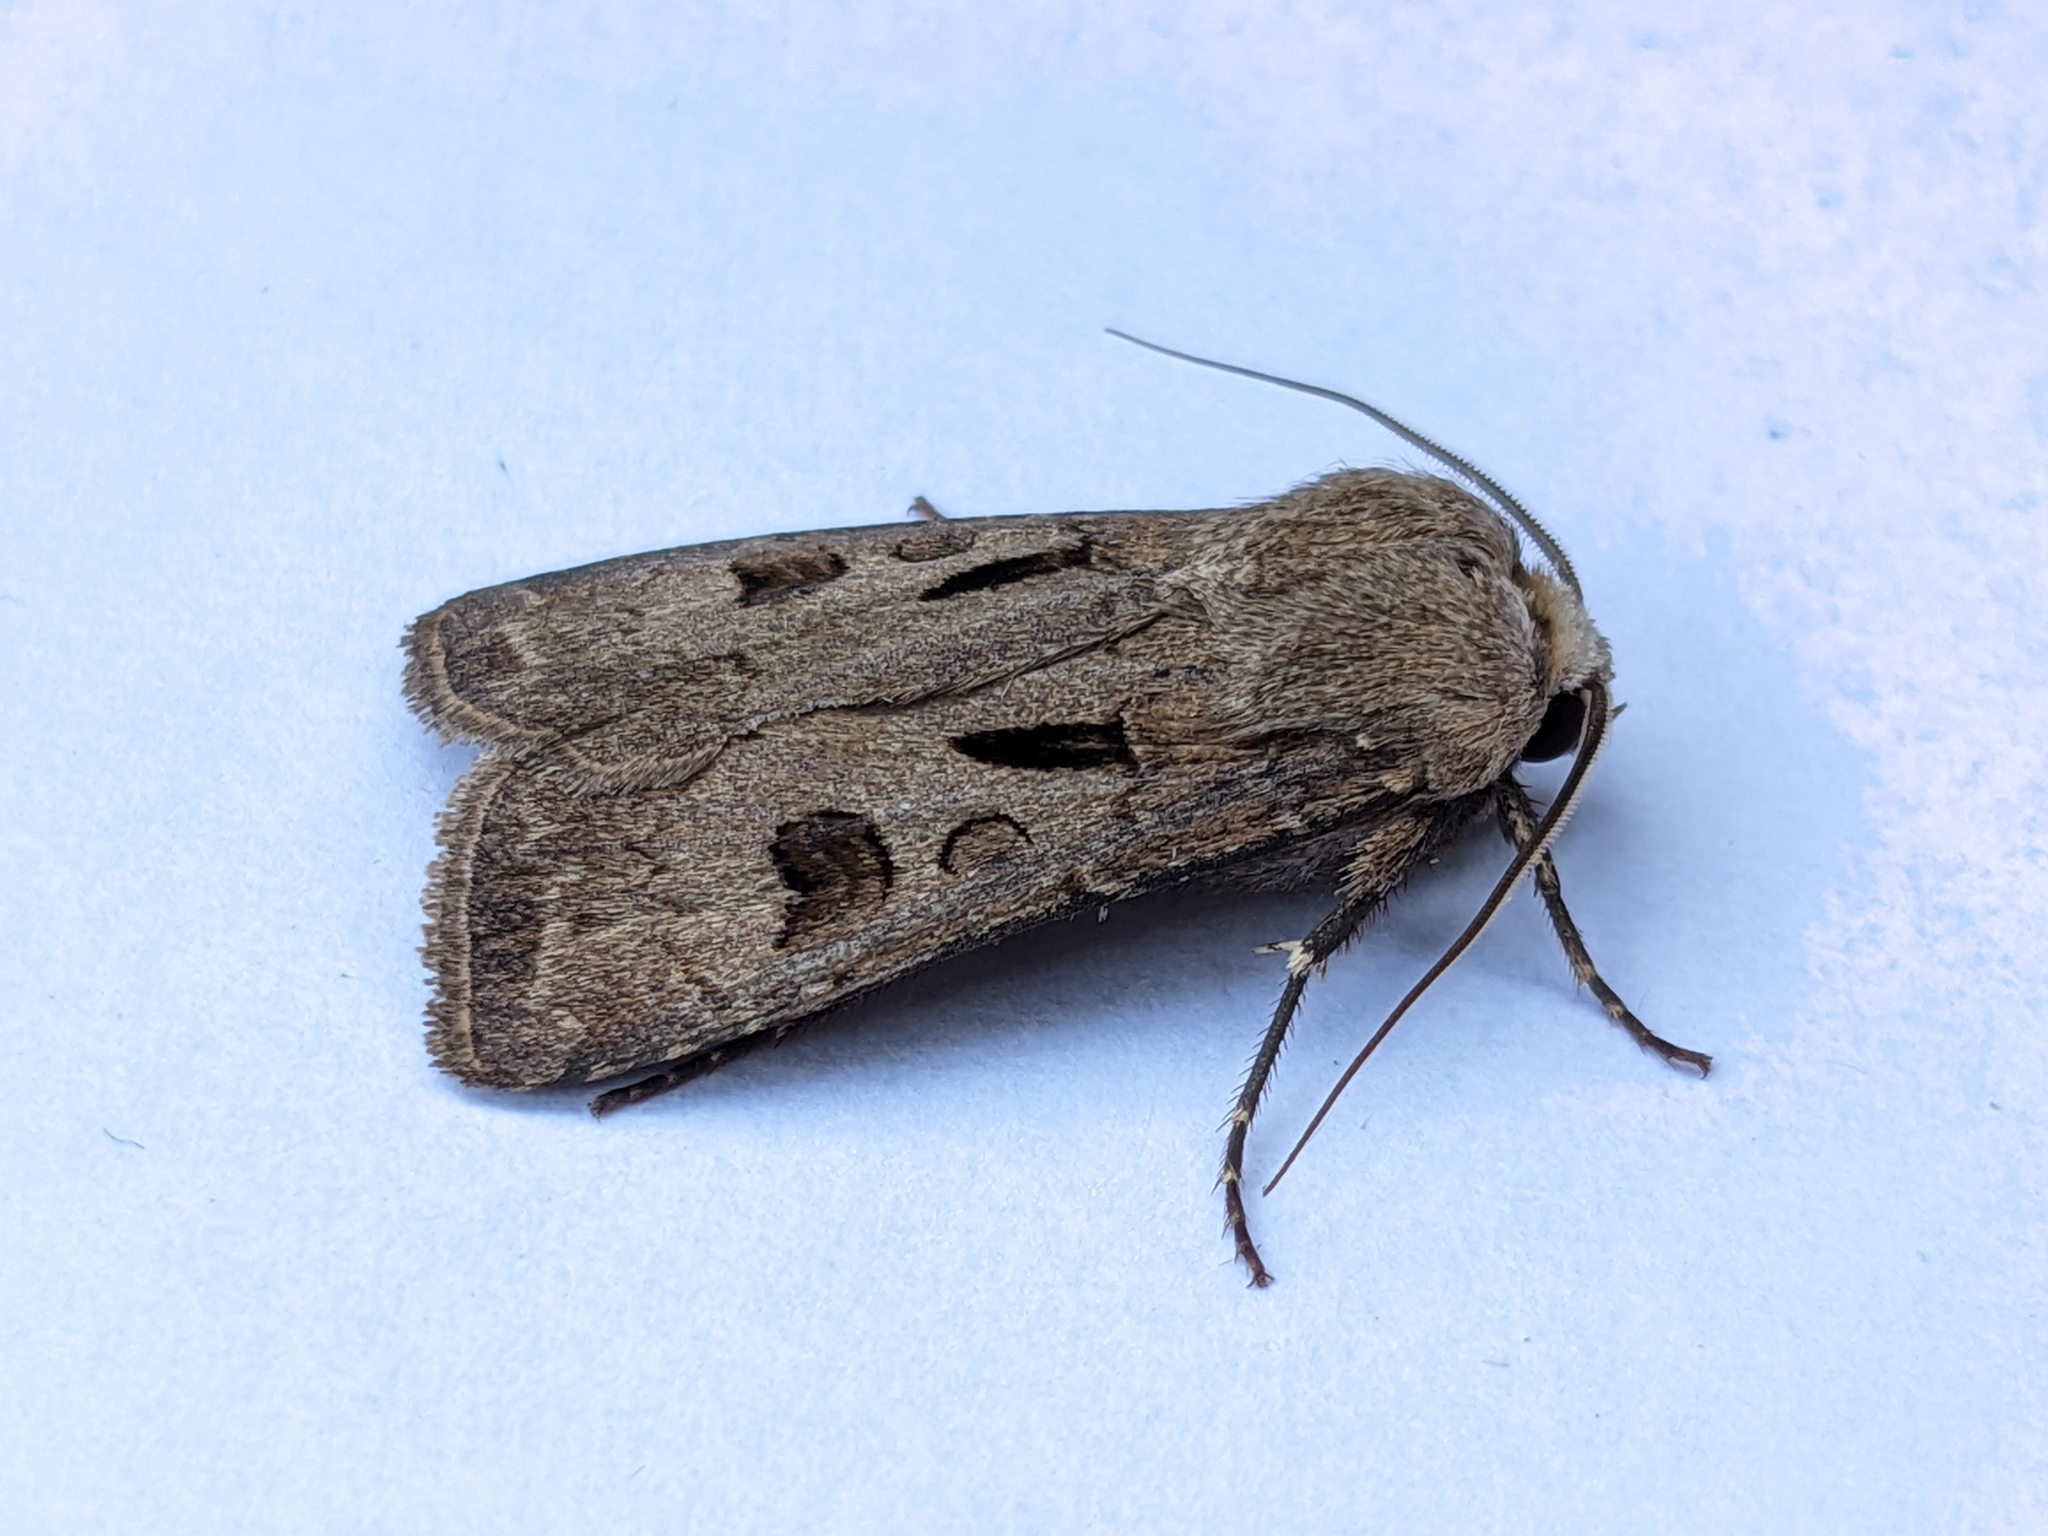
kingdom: Animalia
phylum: Arthropoda
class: Insecta
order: Lepidoptera
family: Noctuidae
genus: Agrotis
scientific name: Agrotis exclamationis
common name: Heart and dart
